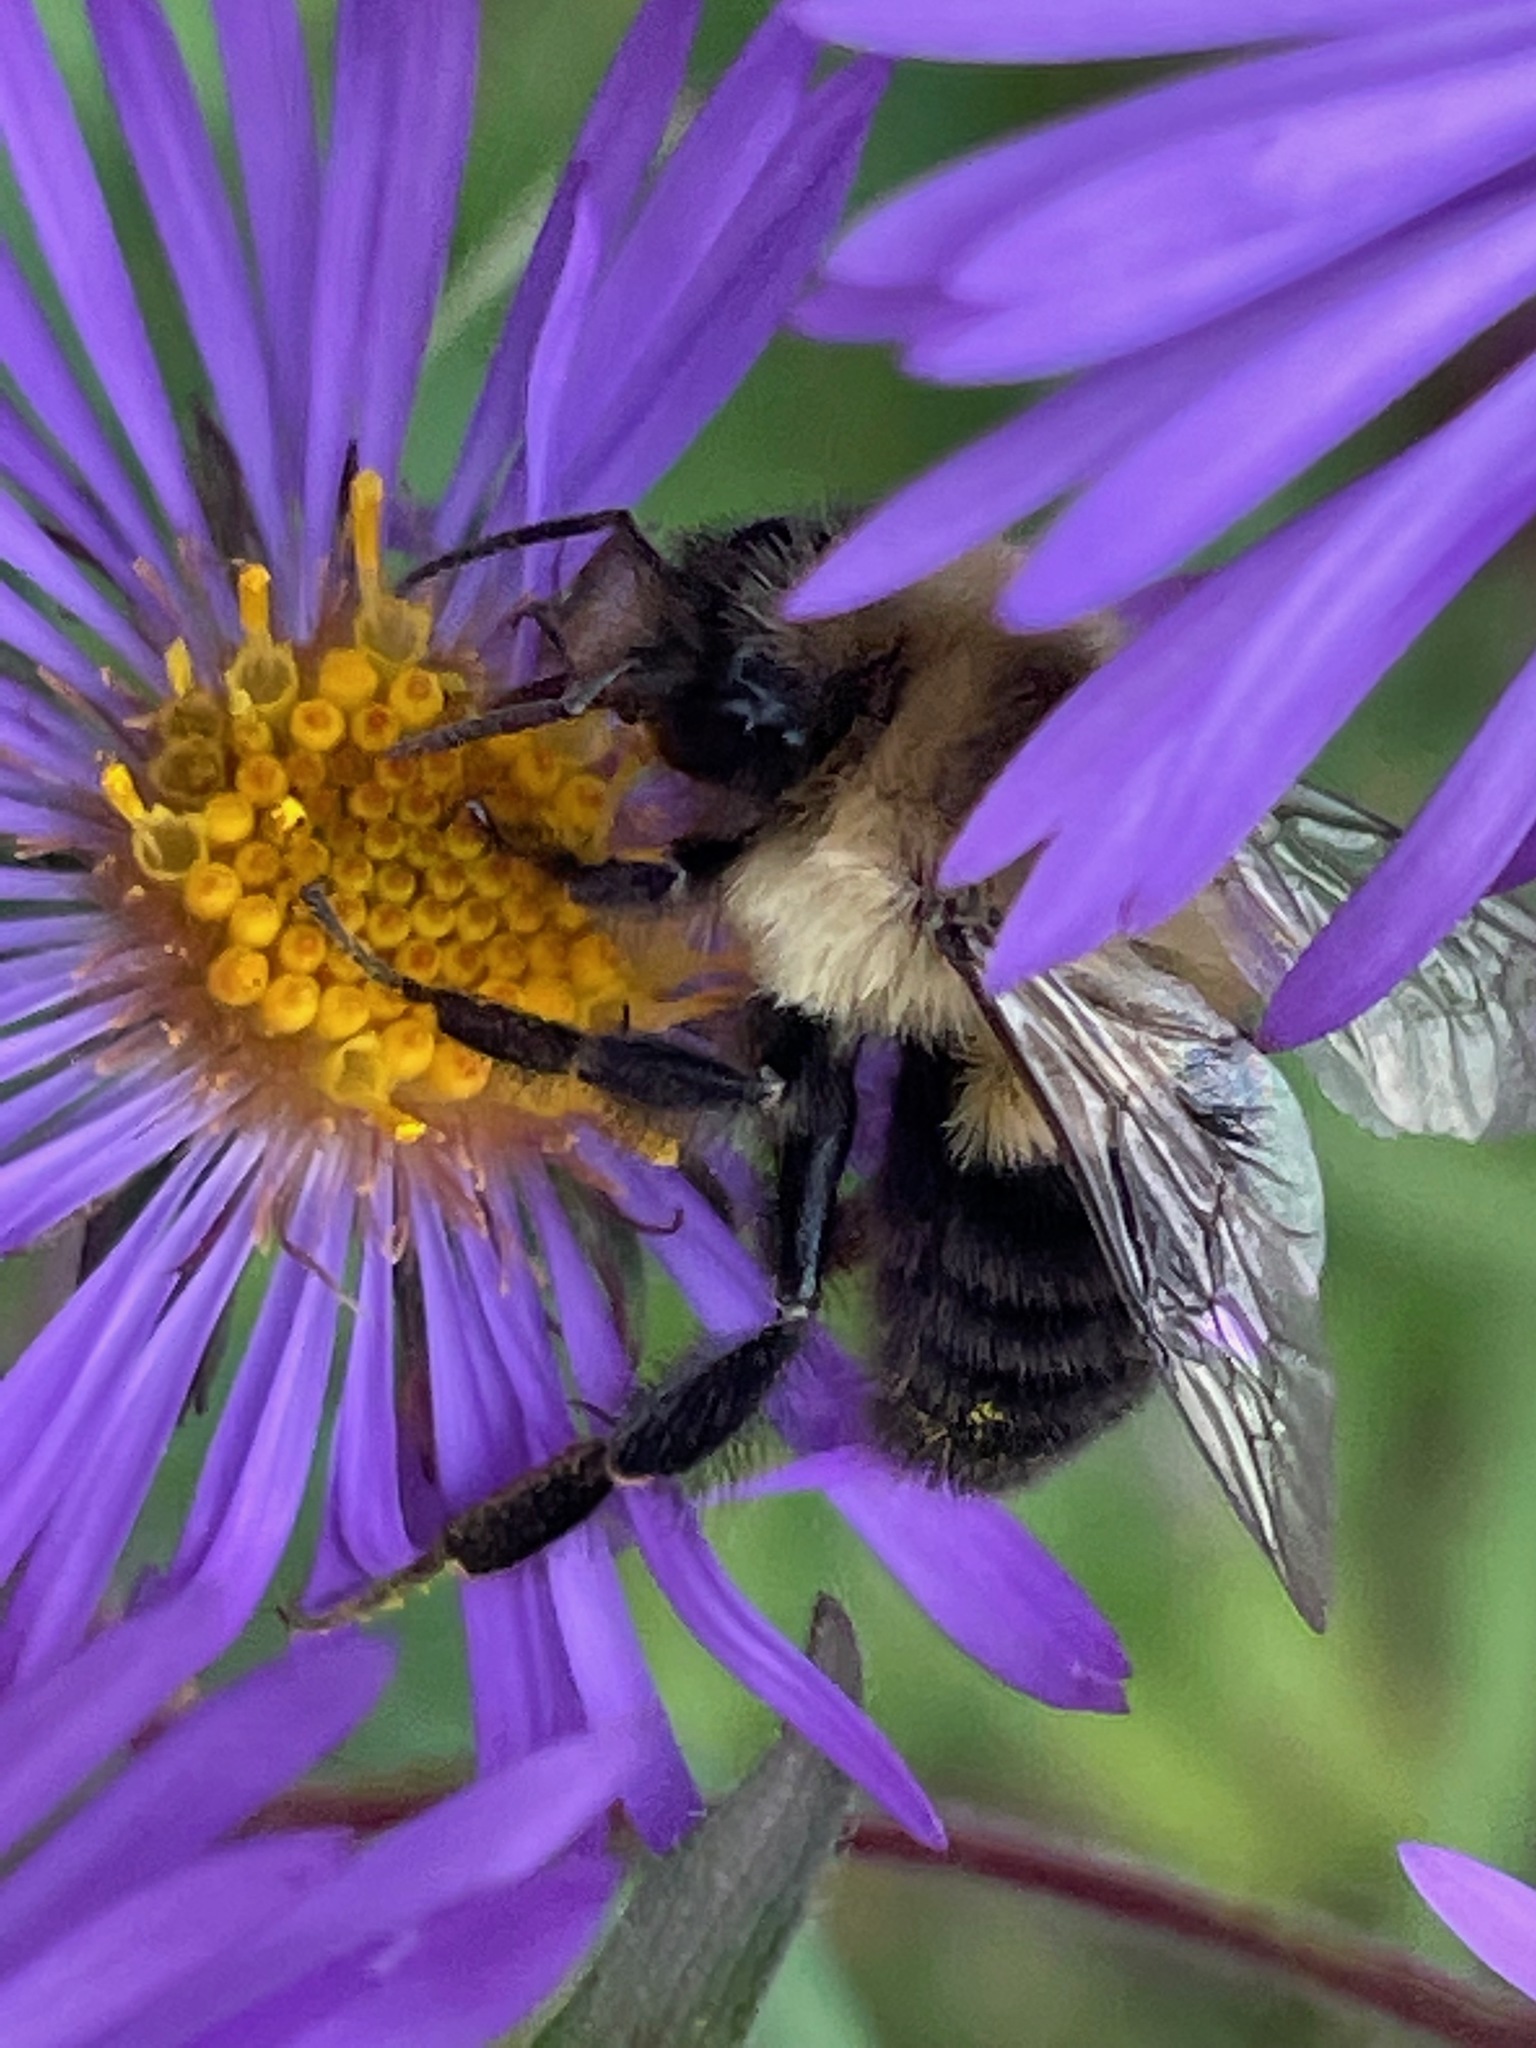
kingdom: Animalia
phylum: Arthropoda
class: Insecta
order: Hymenoptera
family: Apidae
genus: Bombus
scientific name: Bombus impatiens
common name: Common eastern bumble bee
